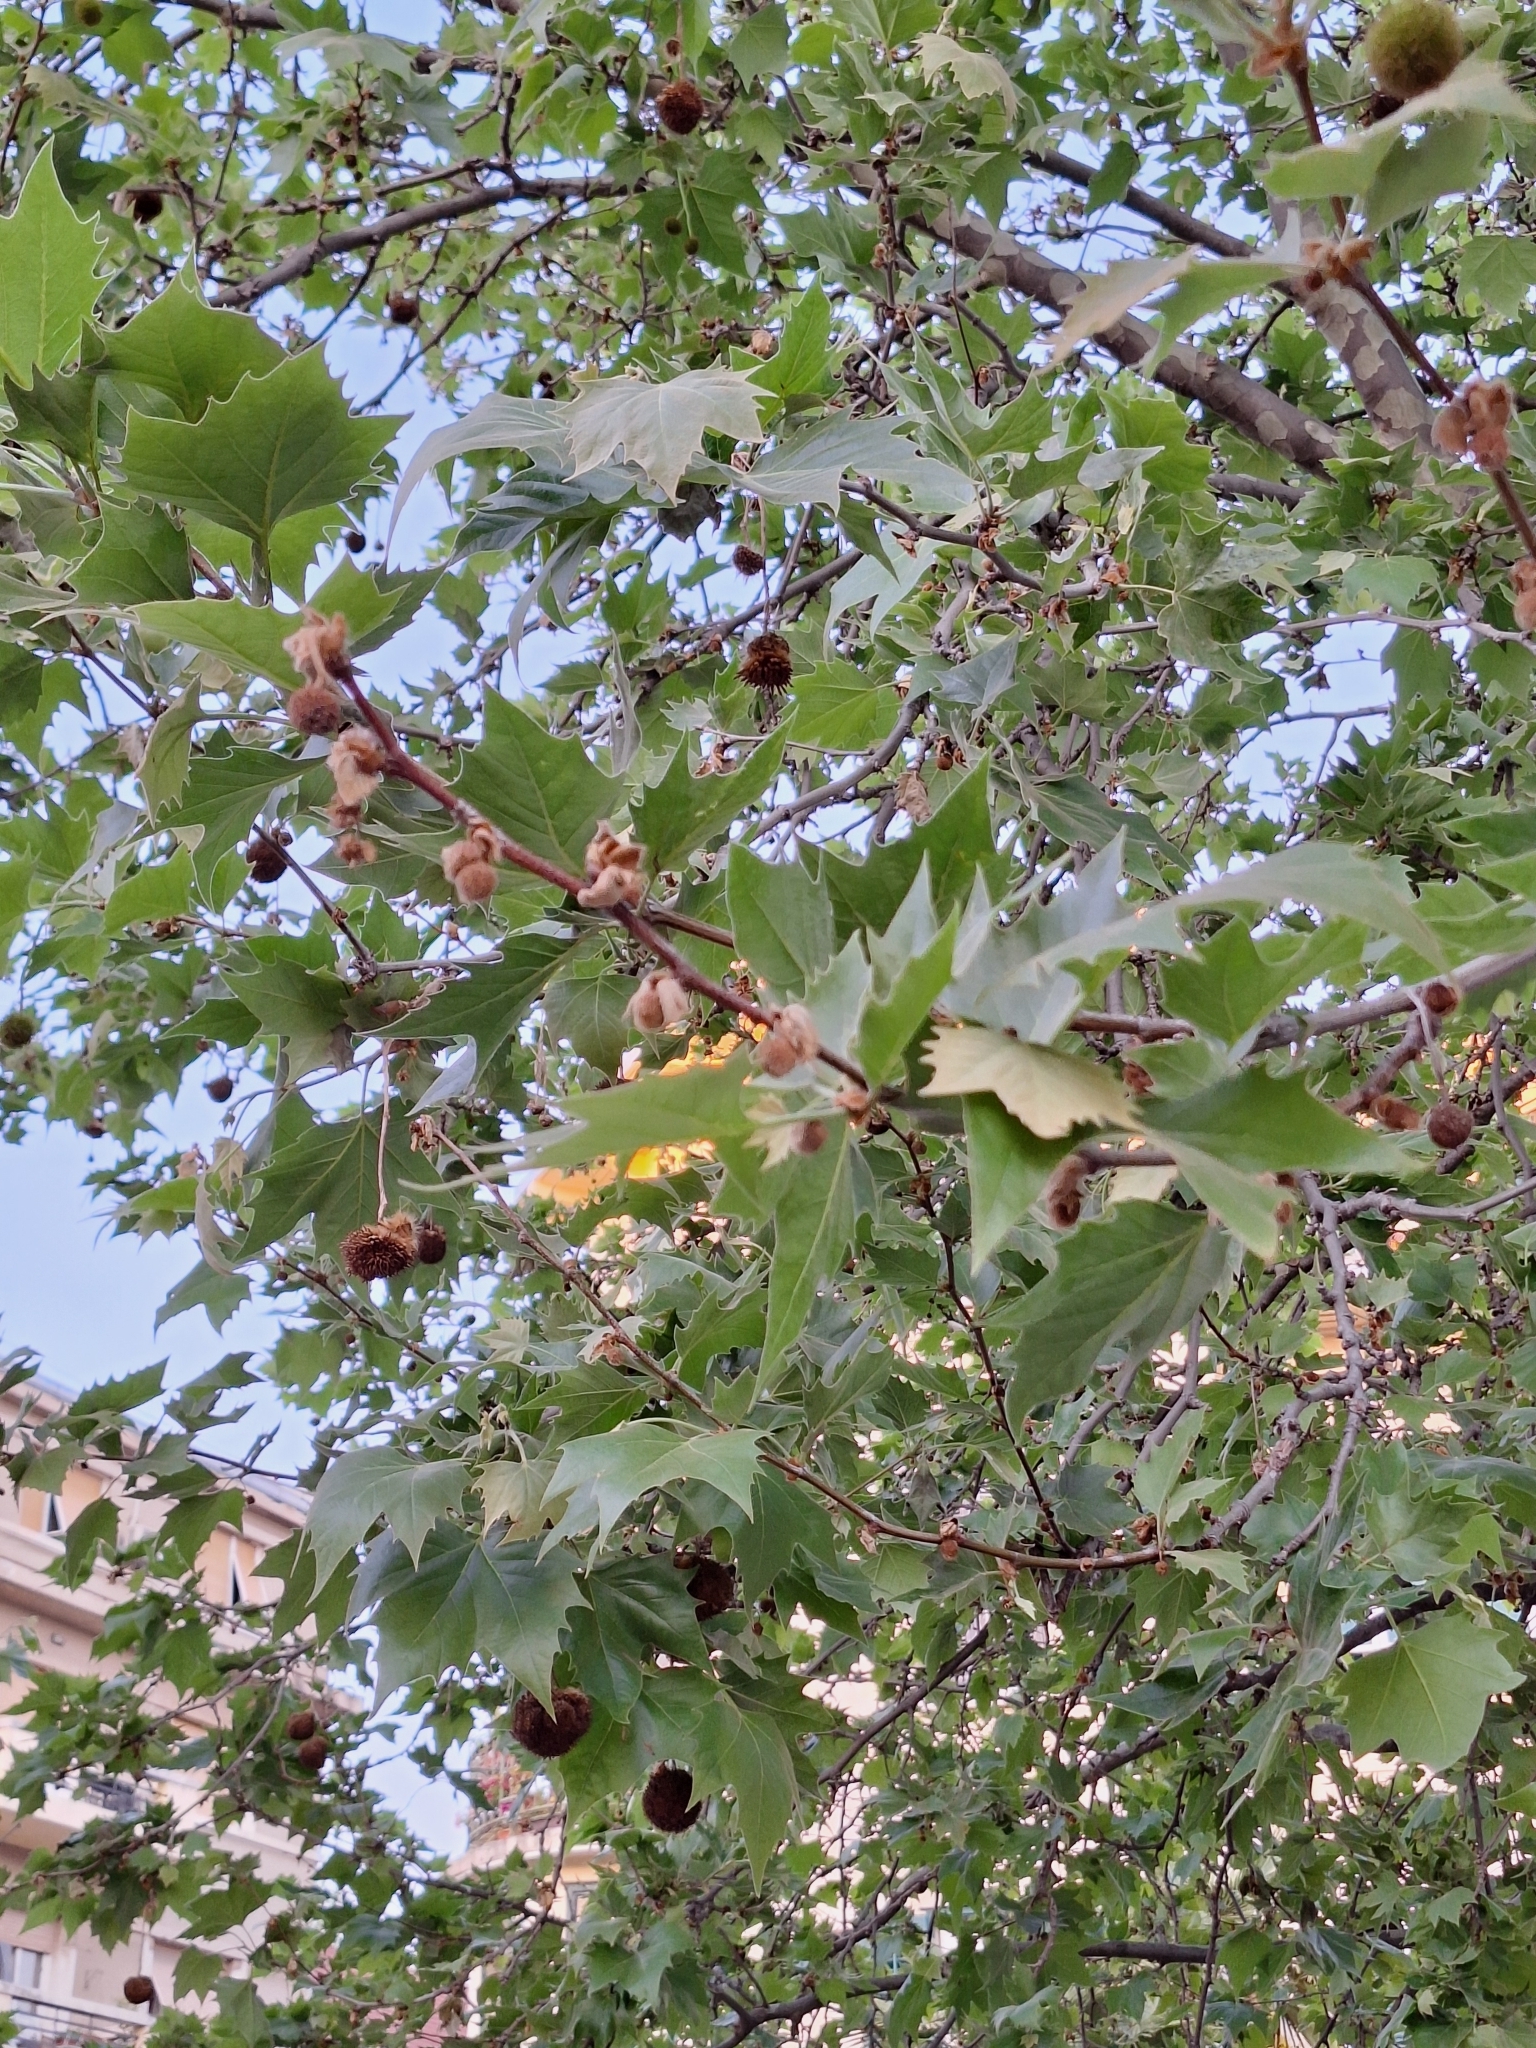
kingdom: Plantae
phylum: Tracheophyta
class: Magnoliopsida
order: Proteales
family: Platanaceae
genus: Platanus
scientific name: Platanus orientalis
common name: Oriental plane
